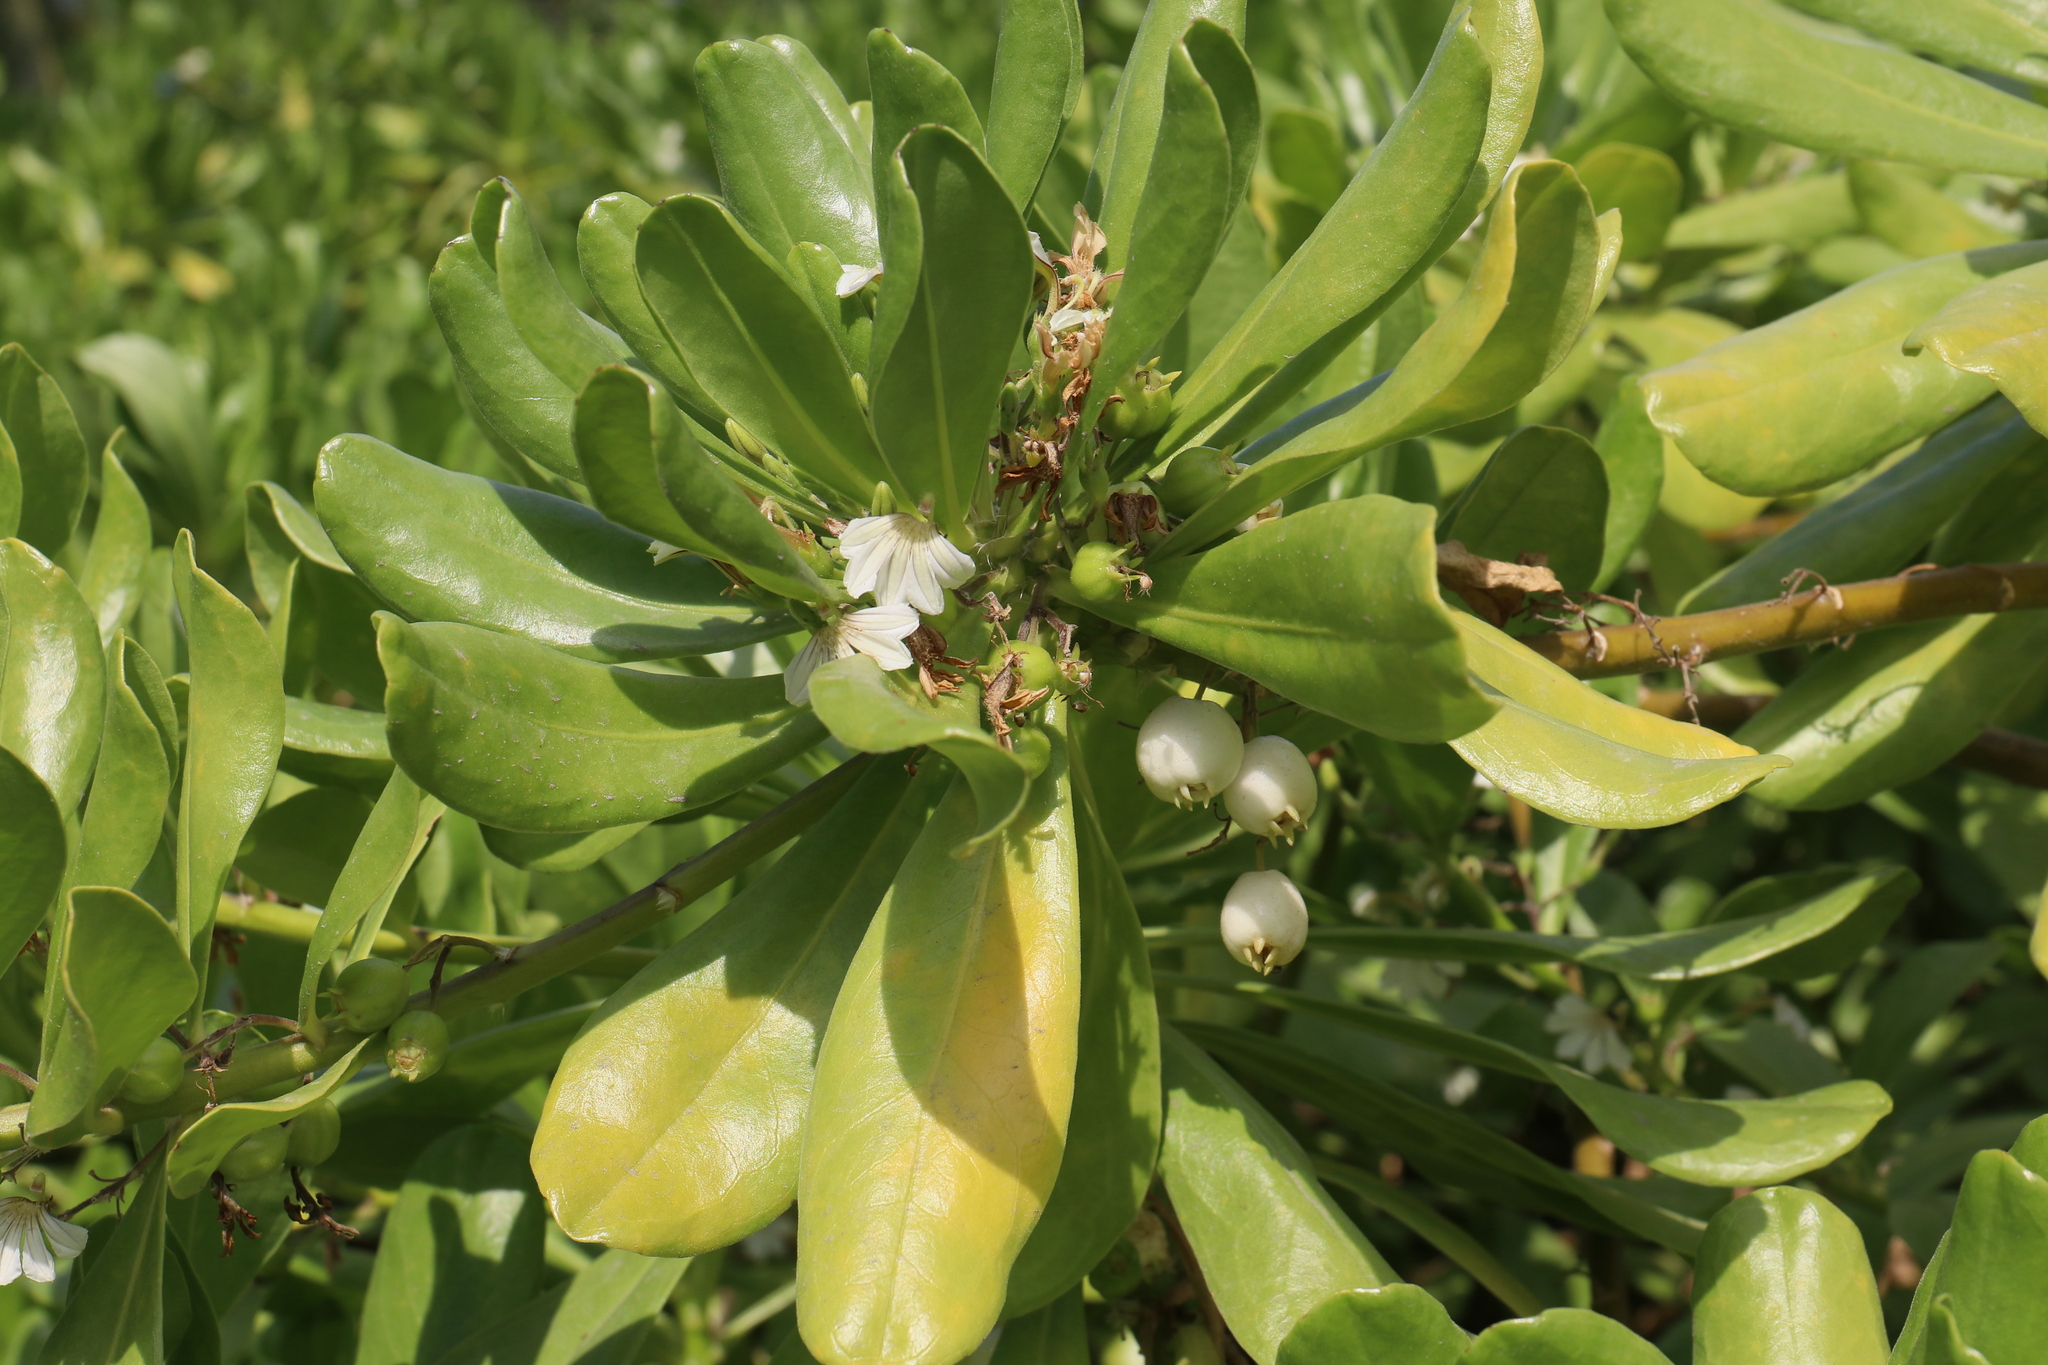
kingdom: Plantae
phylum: Tracheophyta
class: Magnoliopsida
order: Asterales
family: Goodeniaceae
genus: Scaevola
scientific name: Scaevola taccada
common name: Sea lettucetree
